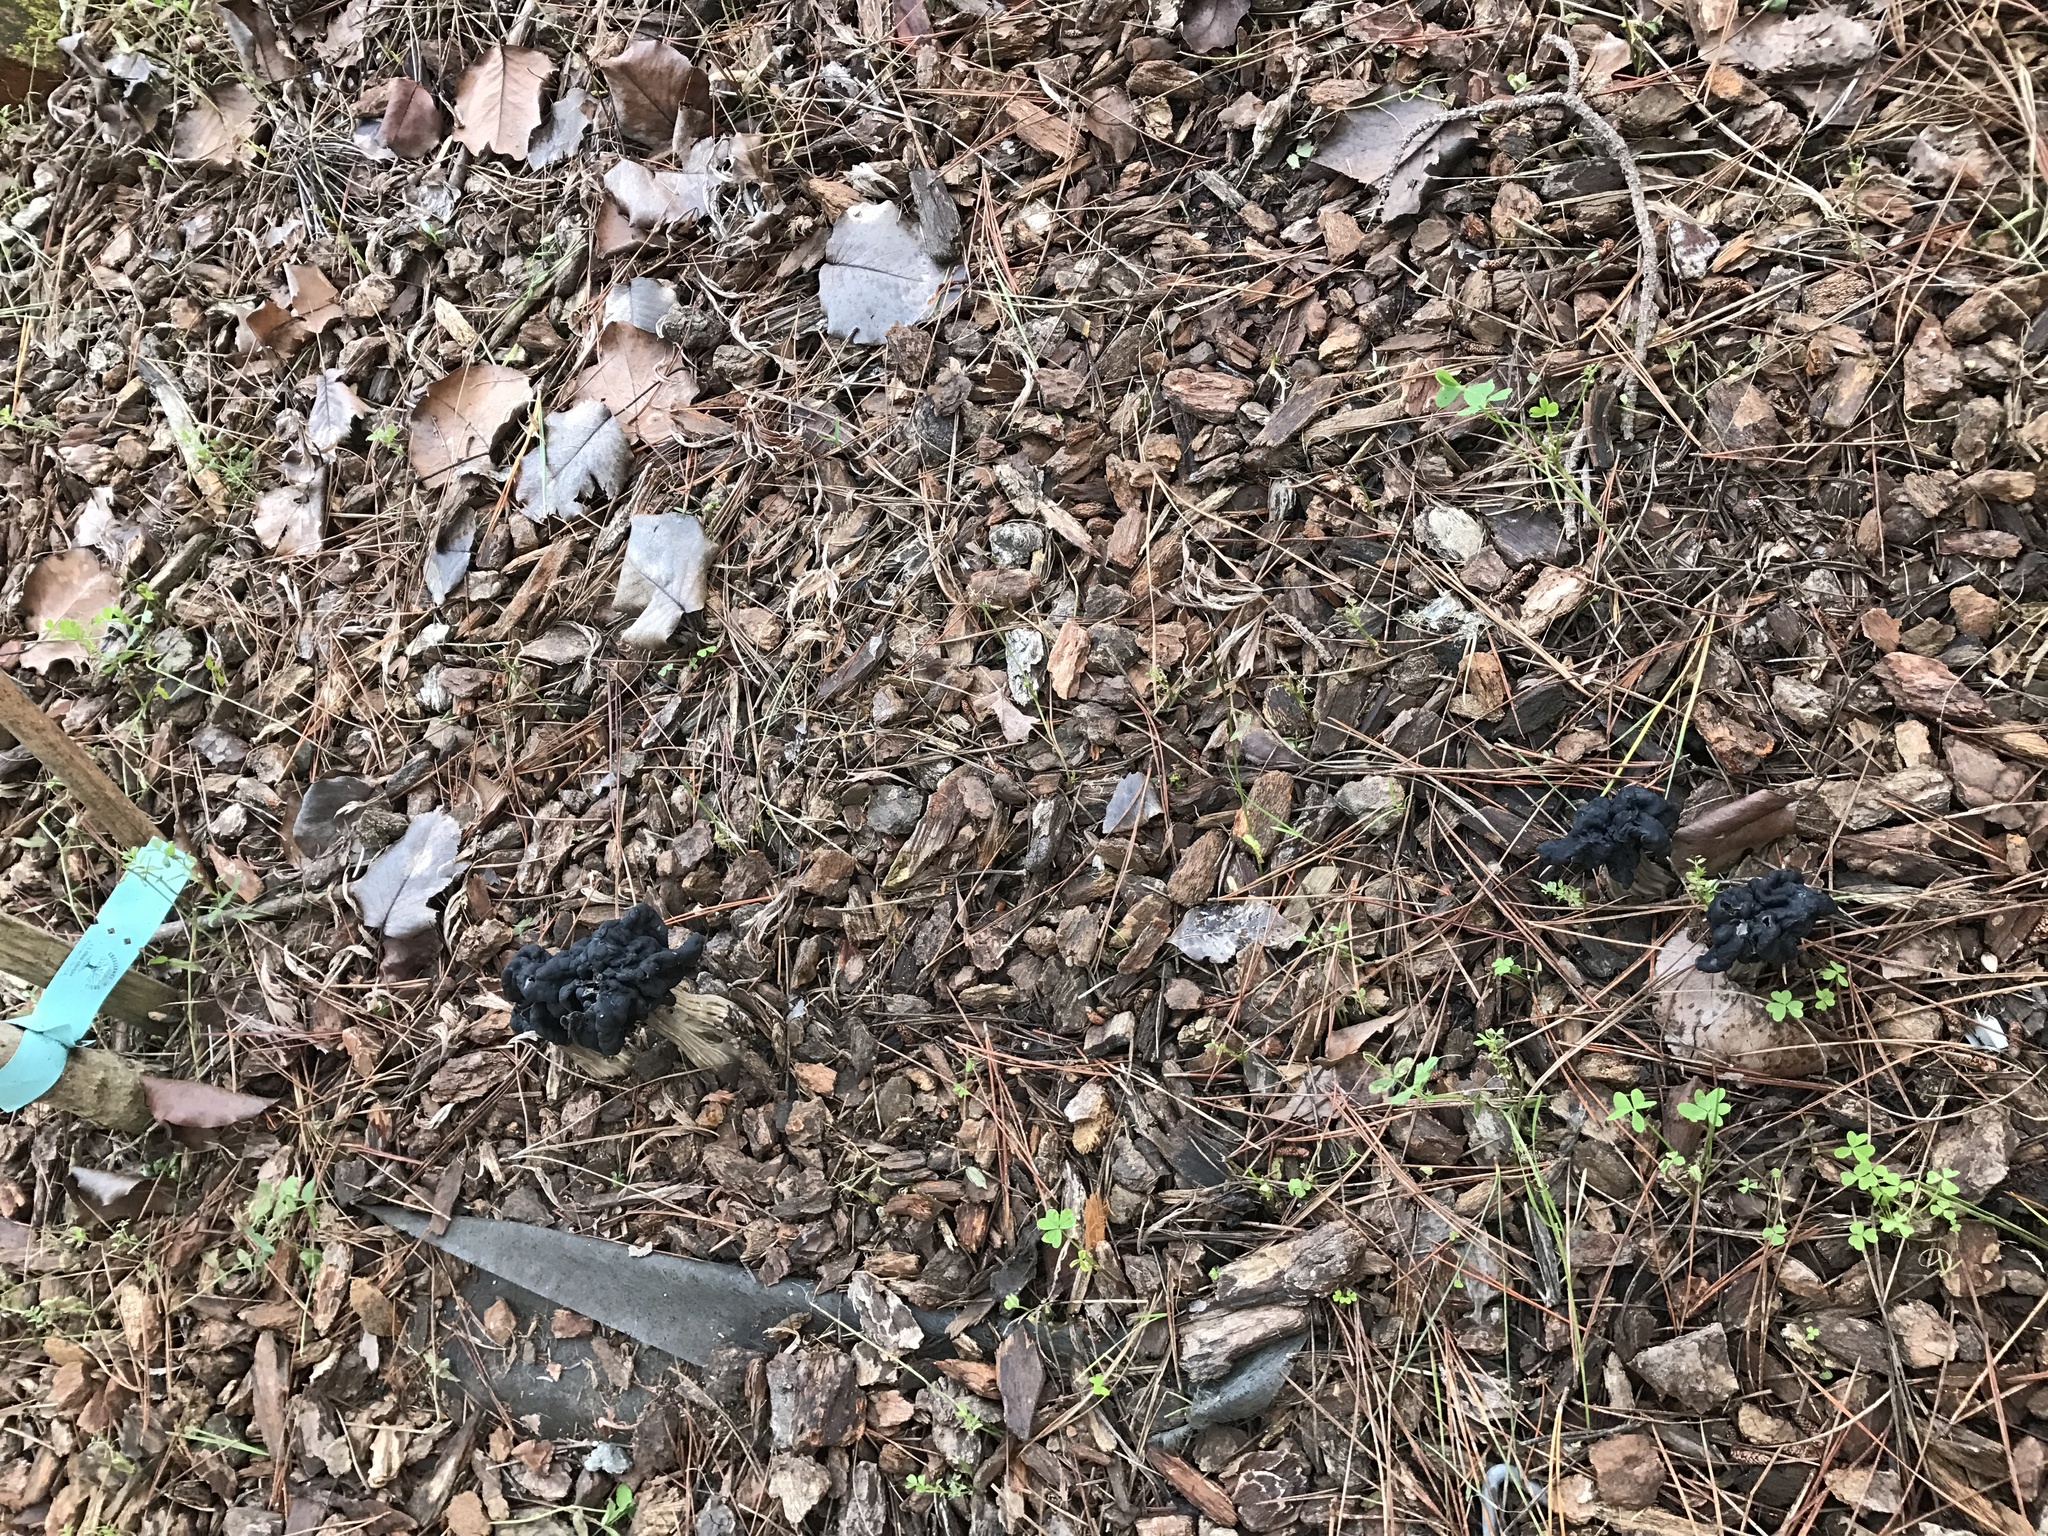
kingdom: Fungi
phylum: Ascomycota
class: Pezizomycetes
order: Pezizales
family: Helvellaceae
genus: Helvella
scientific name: Helvella vespertina
